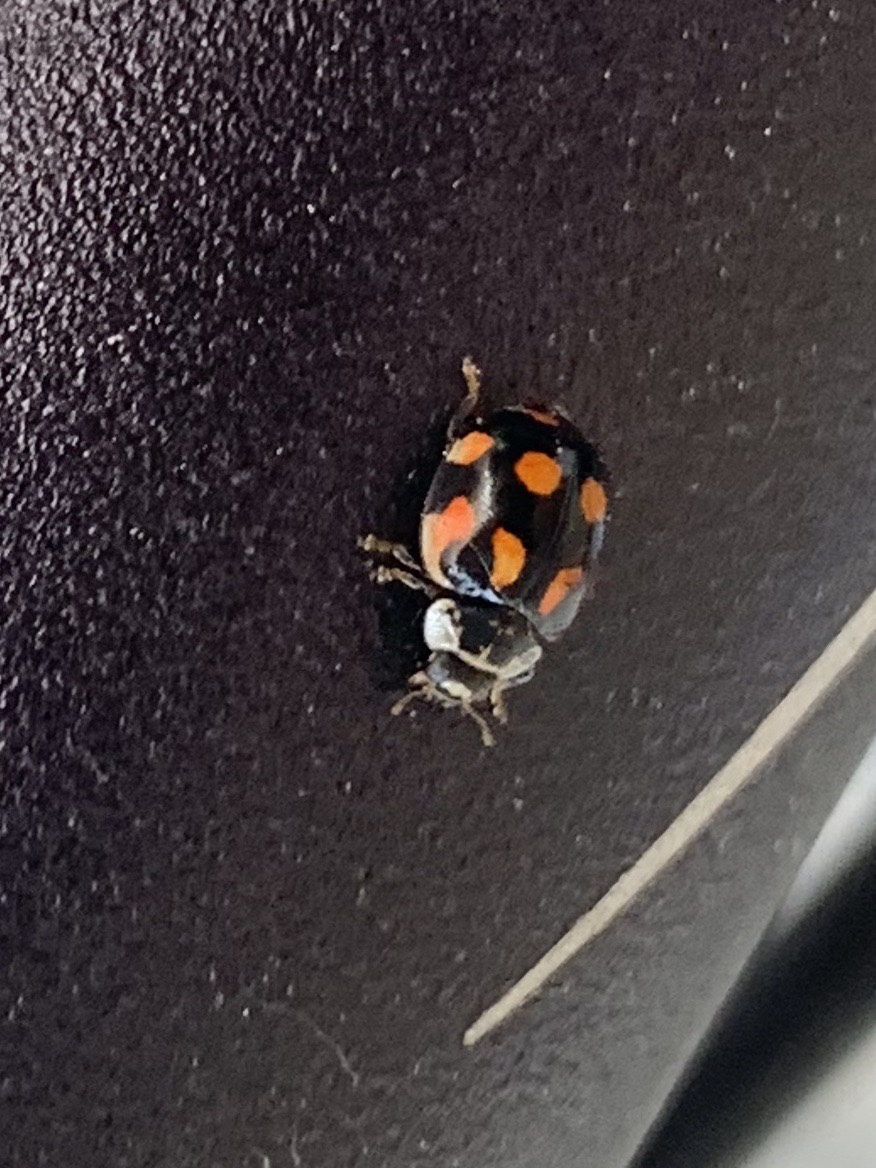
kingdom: Animalia
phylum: Arthropoda
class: Insecta
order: Coleoptera
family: Coccinellidae
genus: Adalia
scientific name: Adalia decempunctata
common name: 10-spot ladybird
